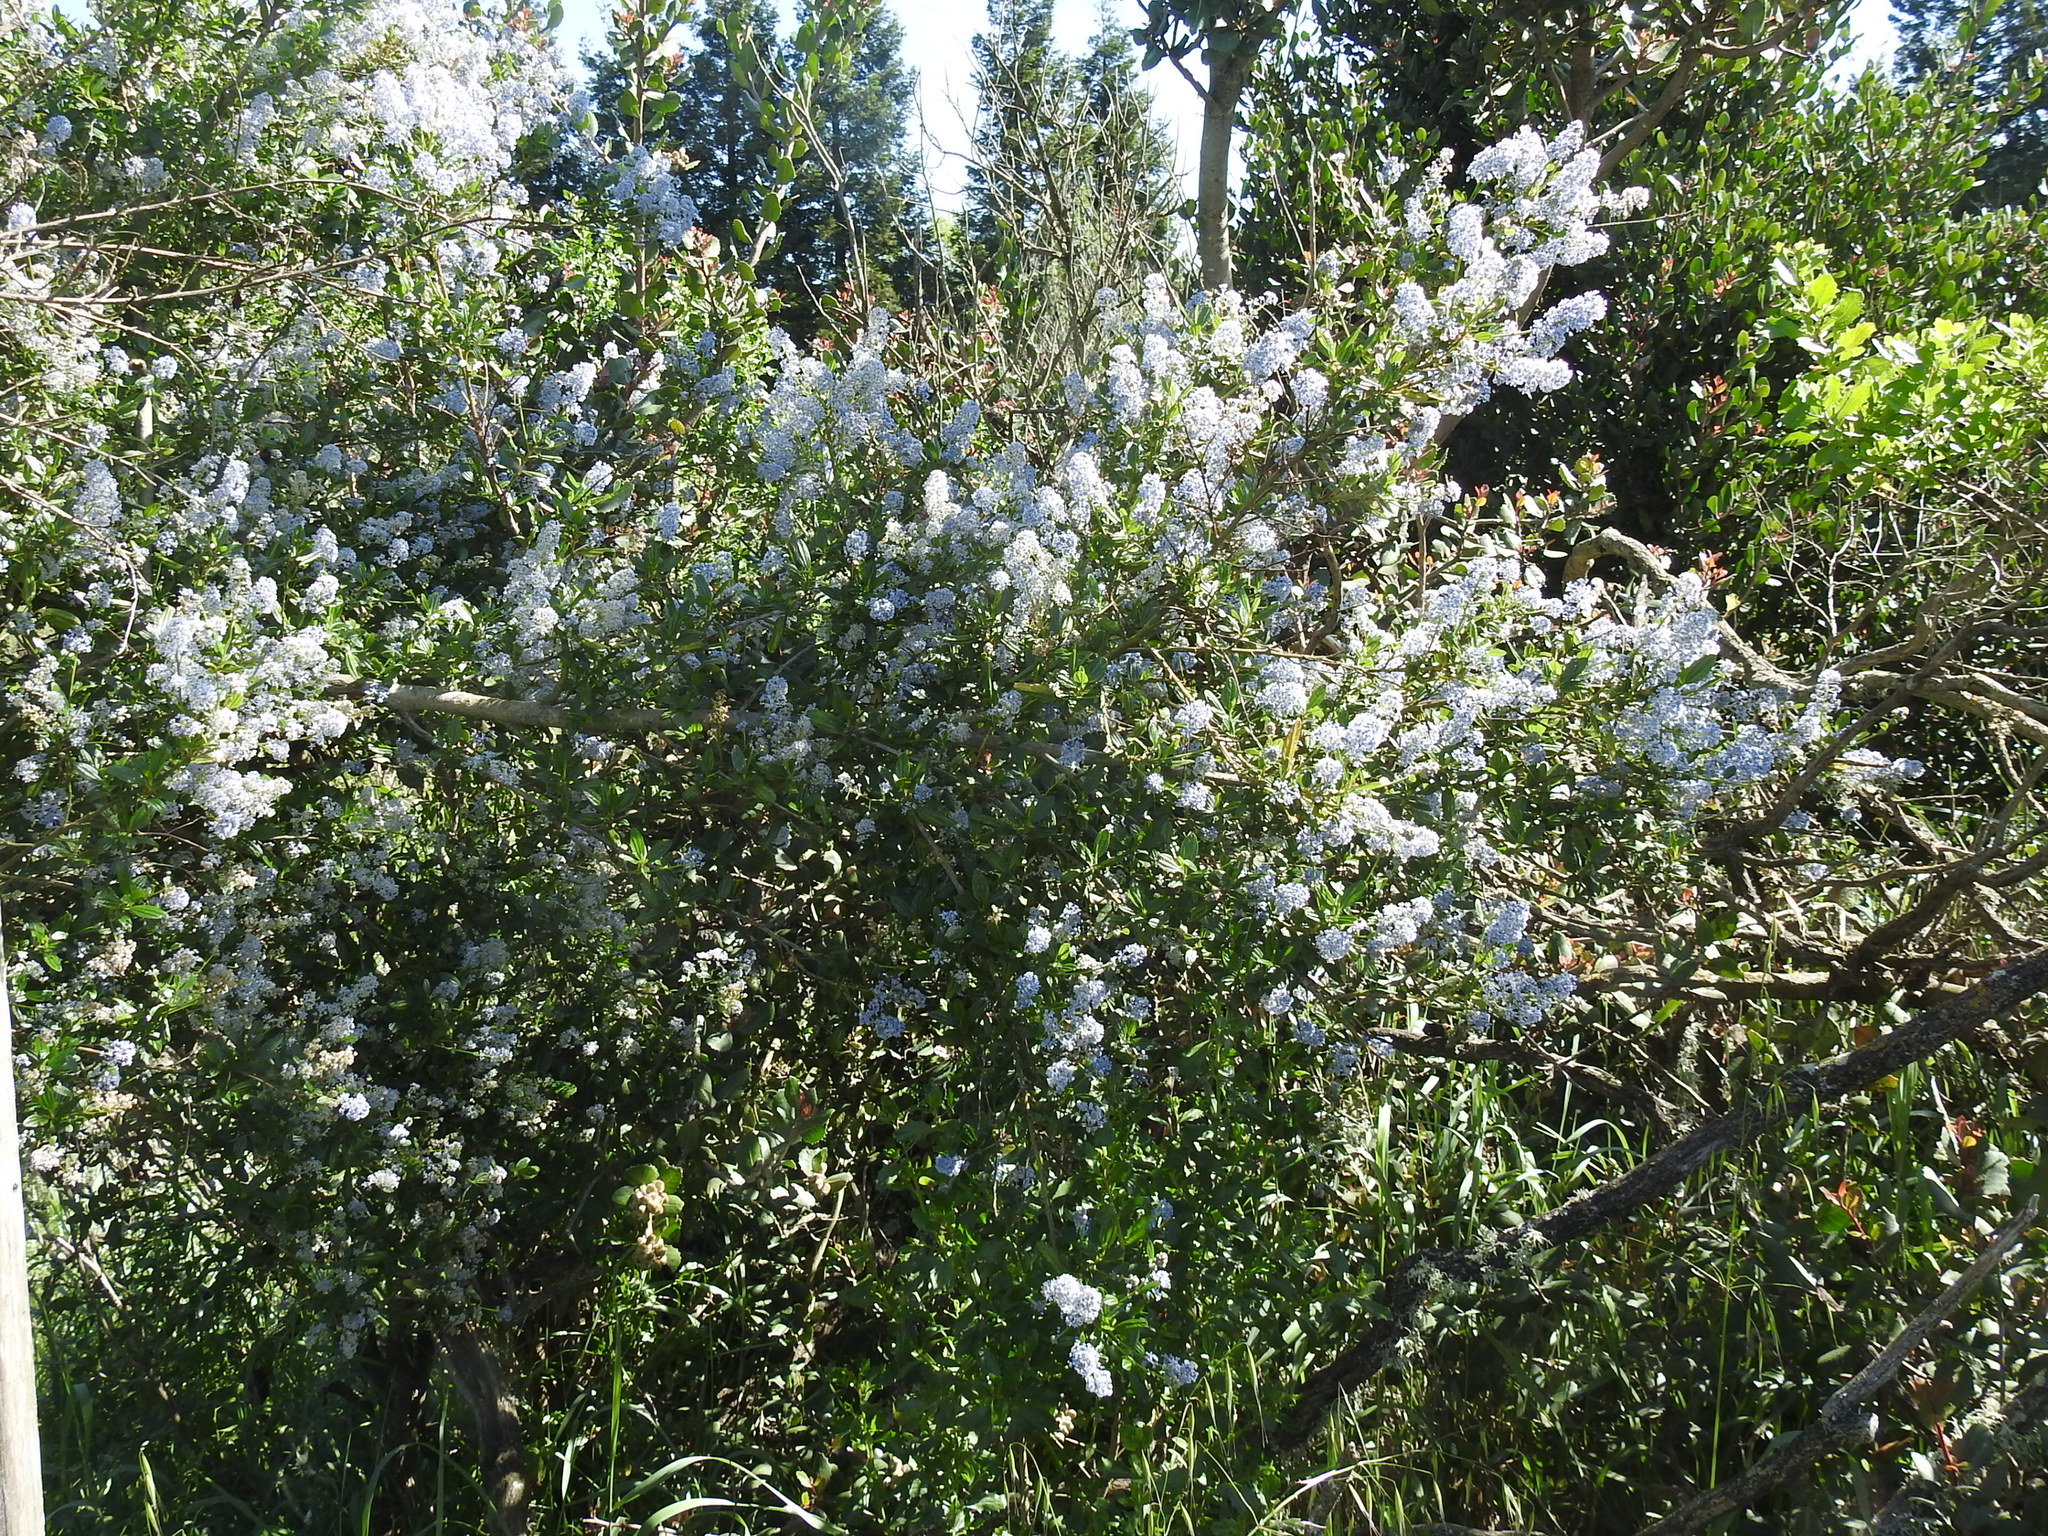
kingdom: Plantae
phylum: Tracheophyta
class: Magnoliopsida
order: Rosales
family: Rhamnaceae
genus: Ceanothus
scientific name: Ceanothus thyrsiflorus
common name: California-lilac
